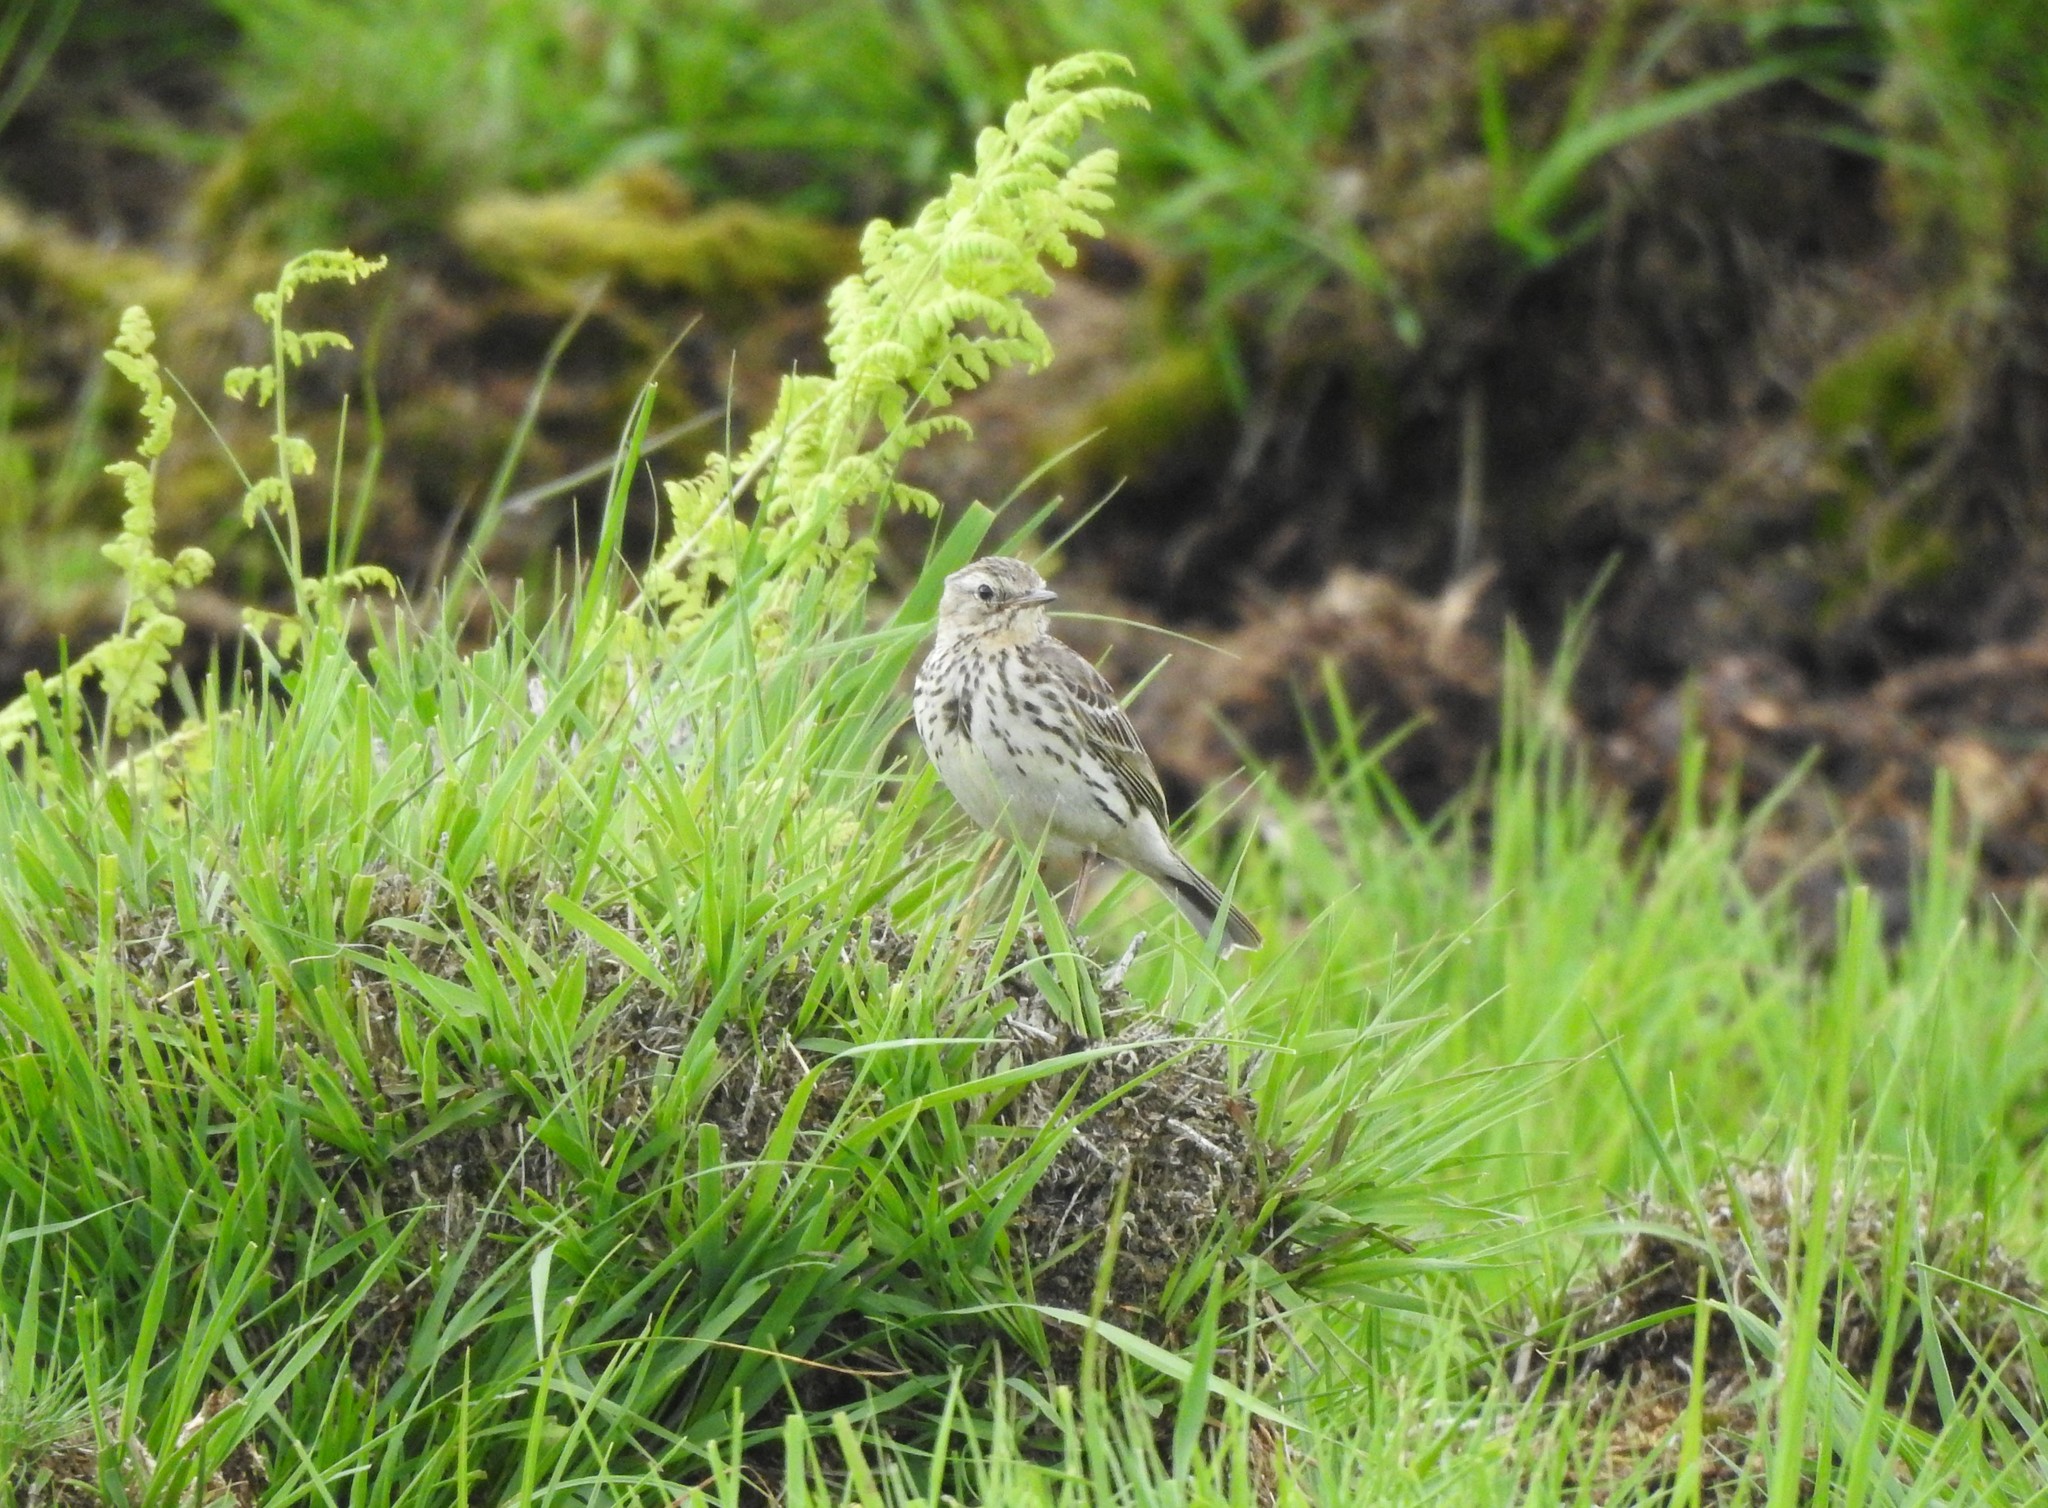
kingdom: Animalia
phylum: Chordata
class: Aves
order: Passeriformes
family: Motacillidae
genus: Anthus
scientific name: Anthus pratensis
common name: Meadow pipit
